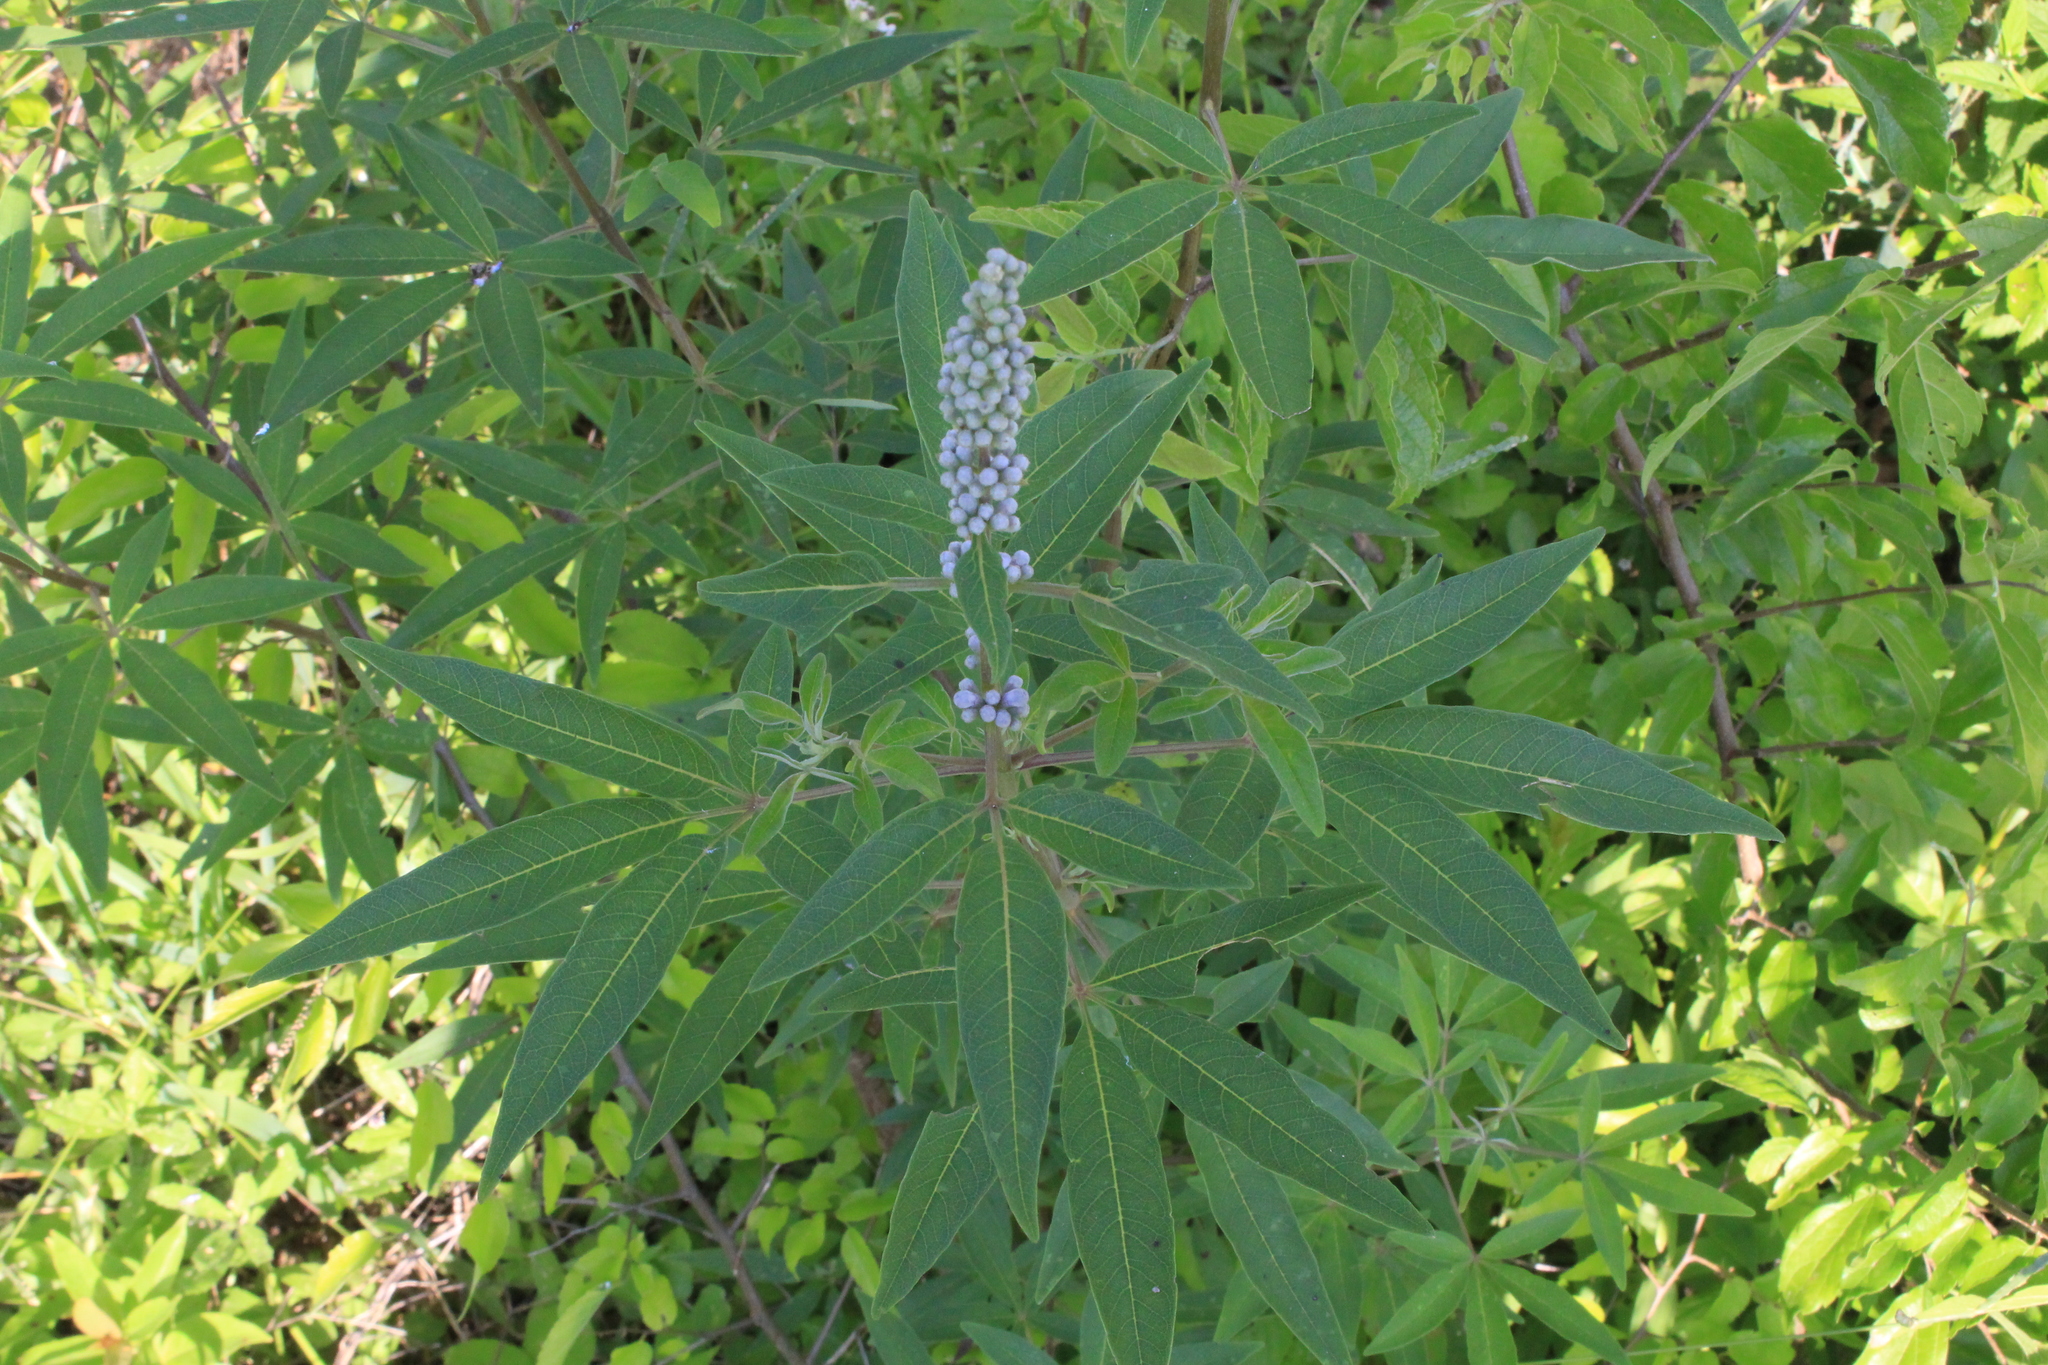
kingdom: Plantae
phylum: Tracheophyta
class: Magnoliopsida
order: Lamiales
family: Lamiaceae
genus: Vitex
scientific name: Vitex agnus-castus
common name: Chasteberry
